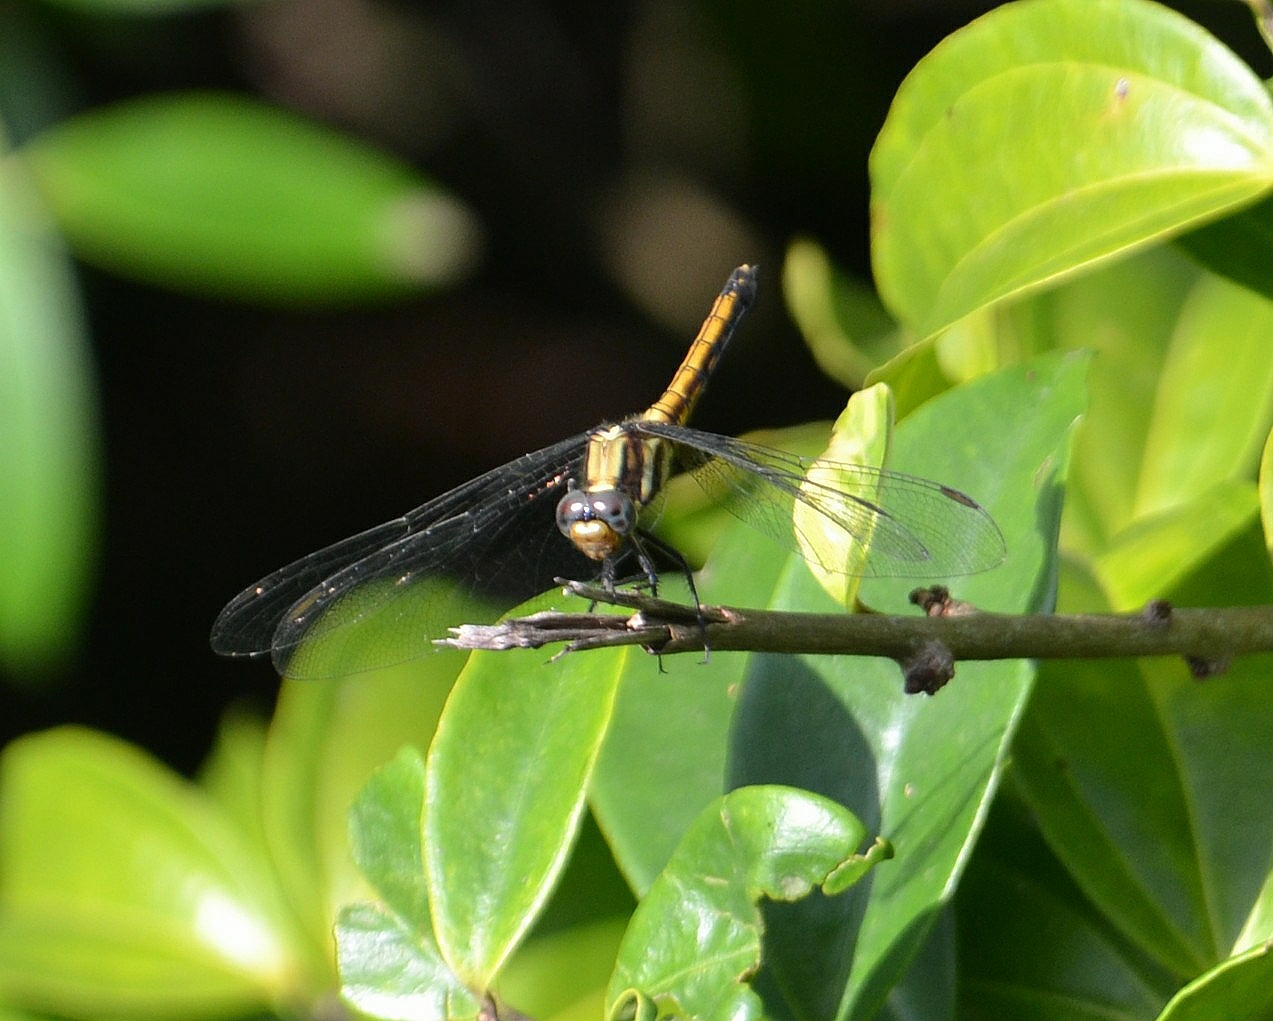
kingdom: Animalia
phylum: Arthropoda
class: Insecta
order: Odonata
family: Libellulidae
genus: Orthetrum
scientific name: Orthetrum glaucum
